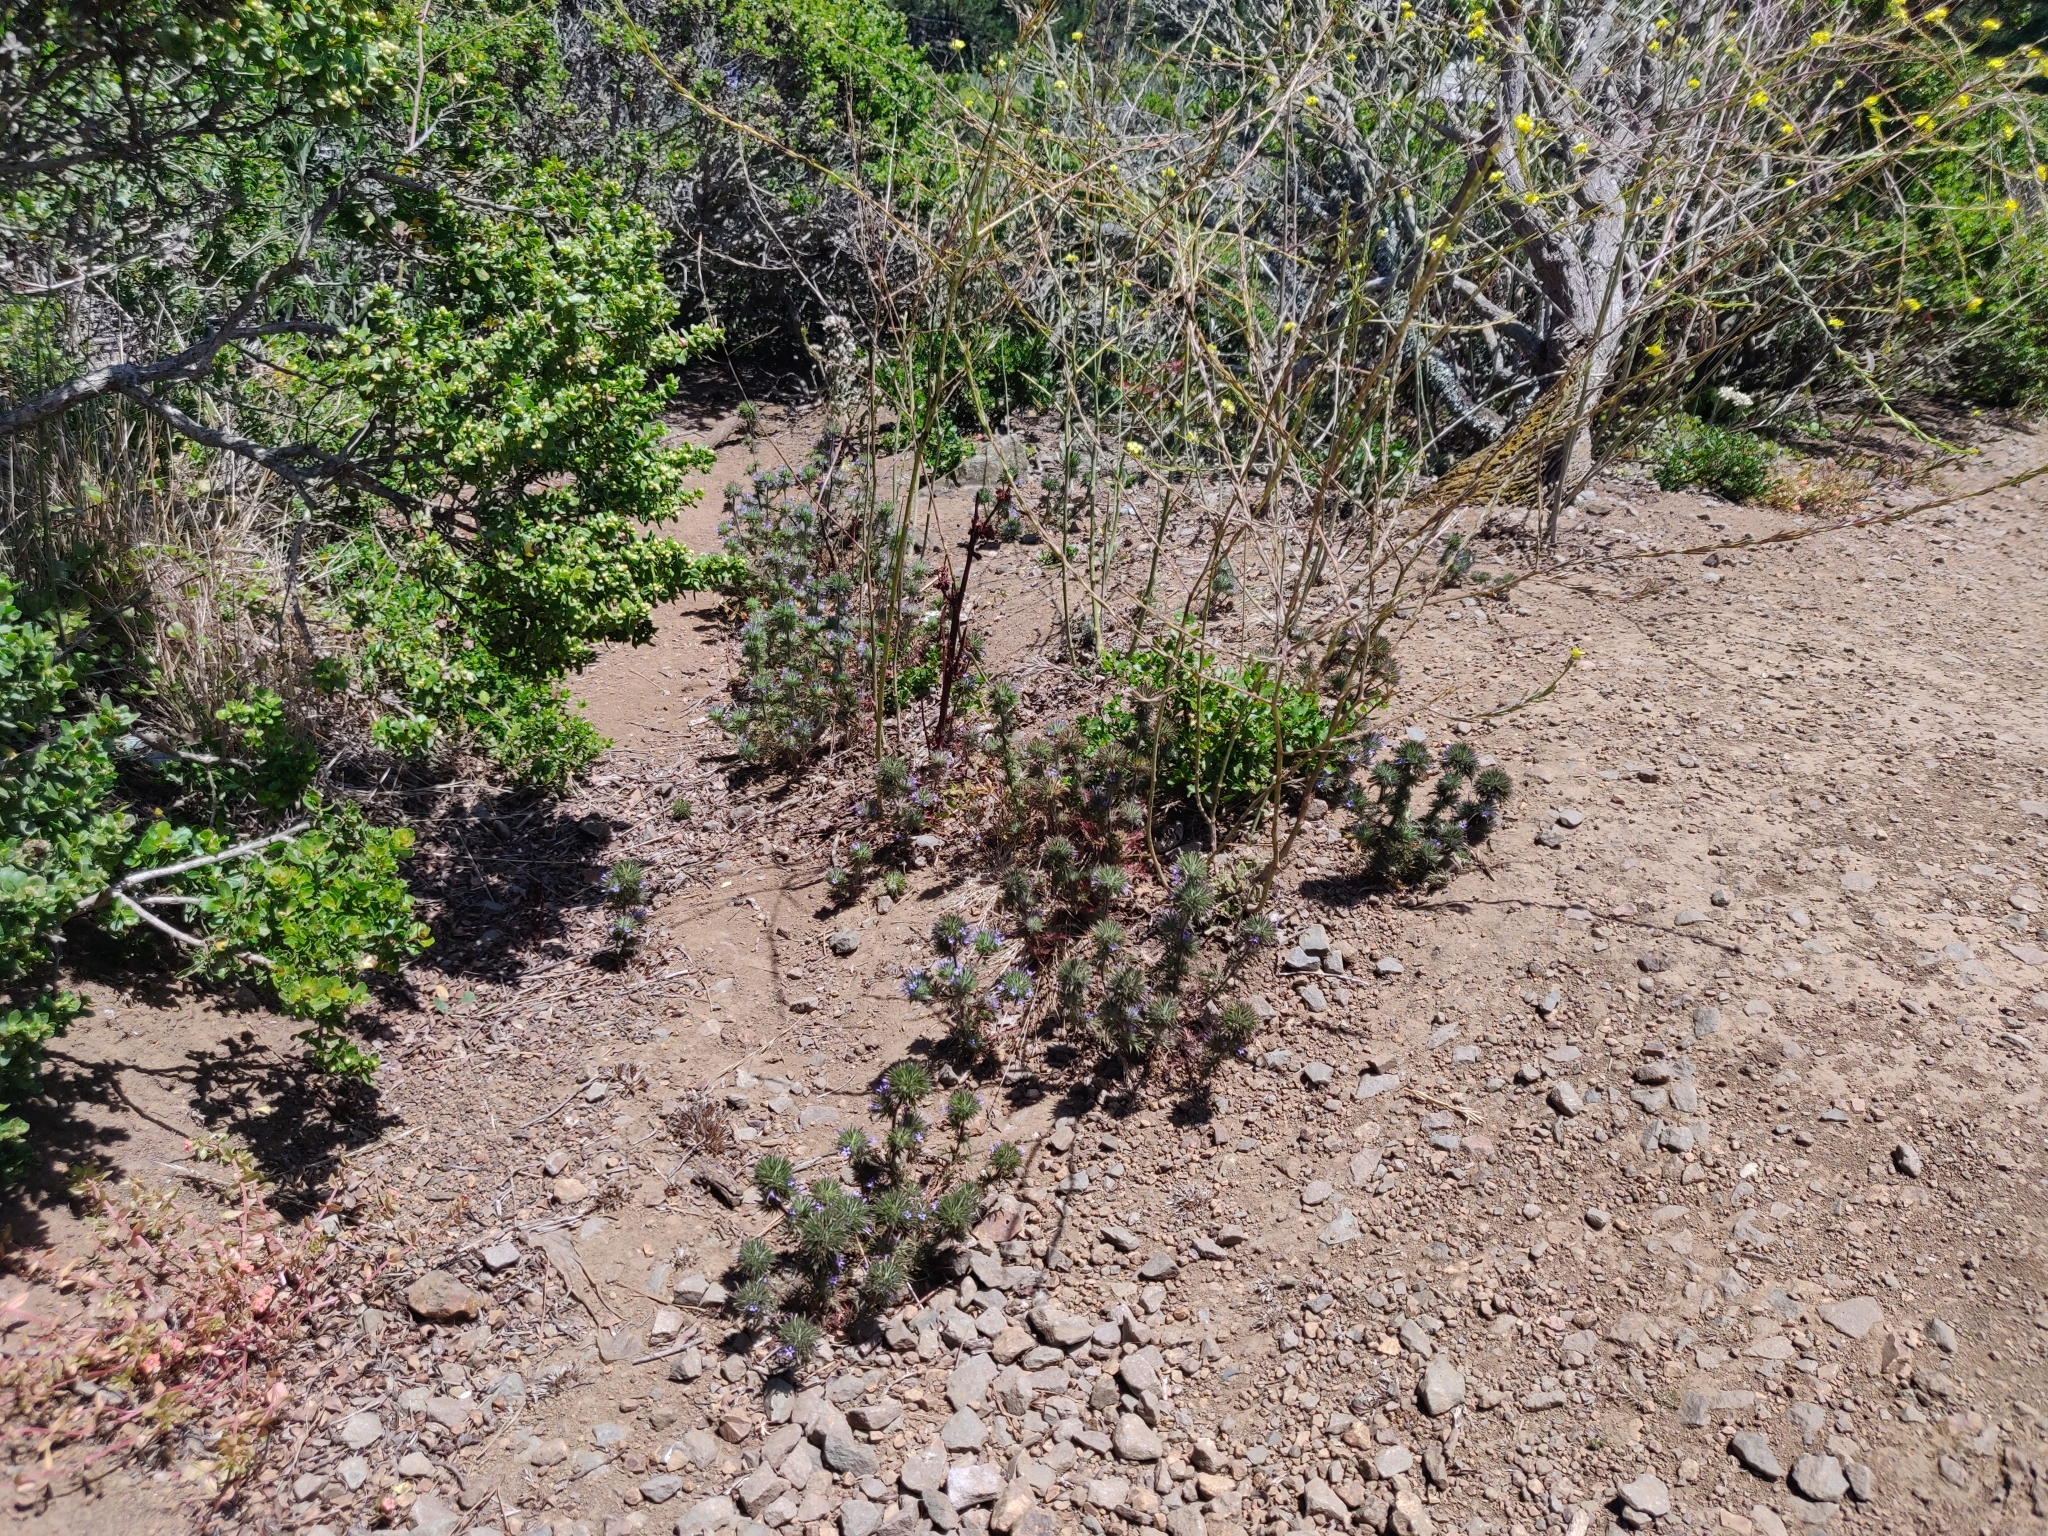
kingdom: Plantae
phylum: Tracheophyta
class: Magnoliopsida
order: Ericales
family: Polemoniaceae
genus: Navarretia
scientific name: Navarretia squarrosa
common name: Skunkweed
